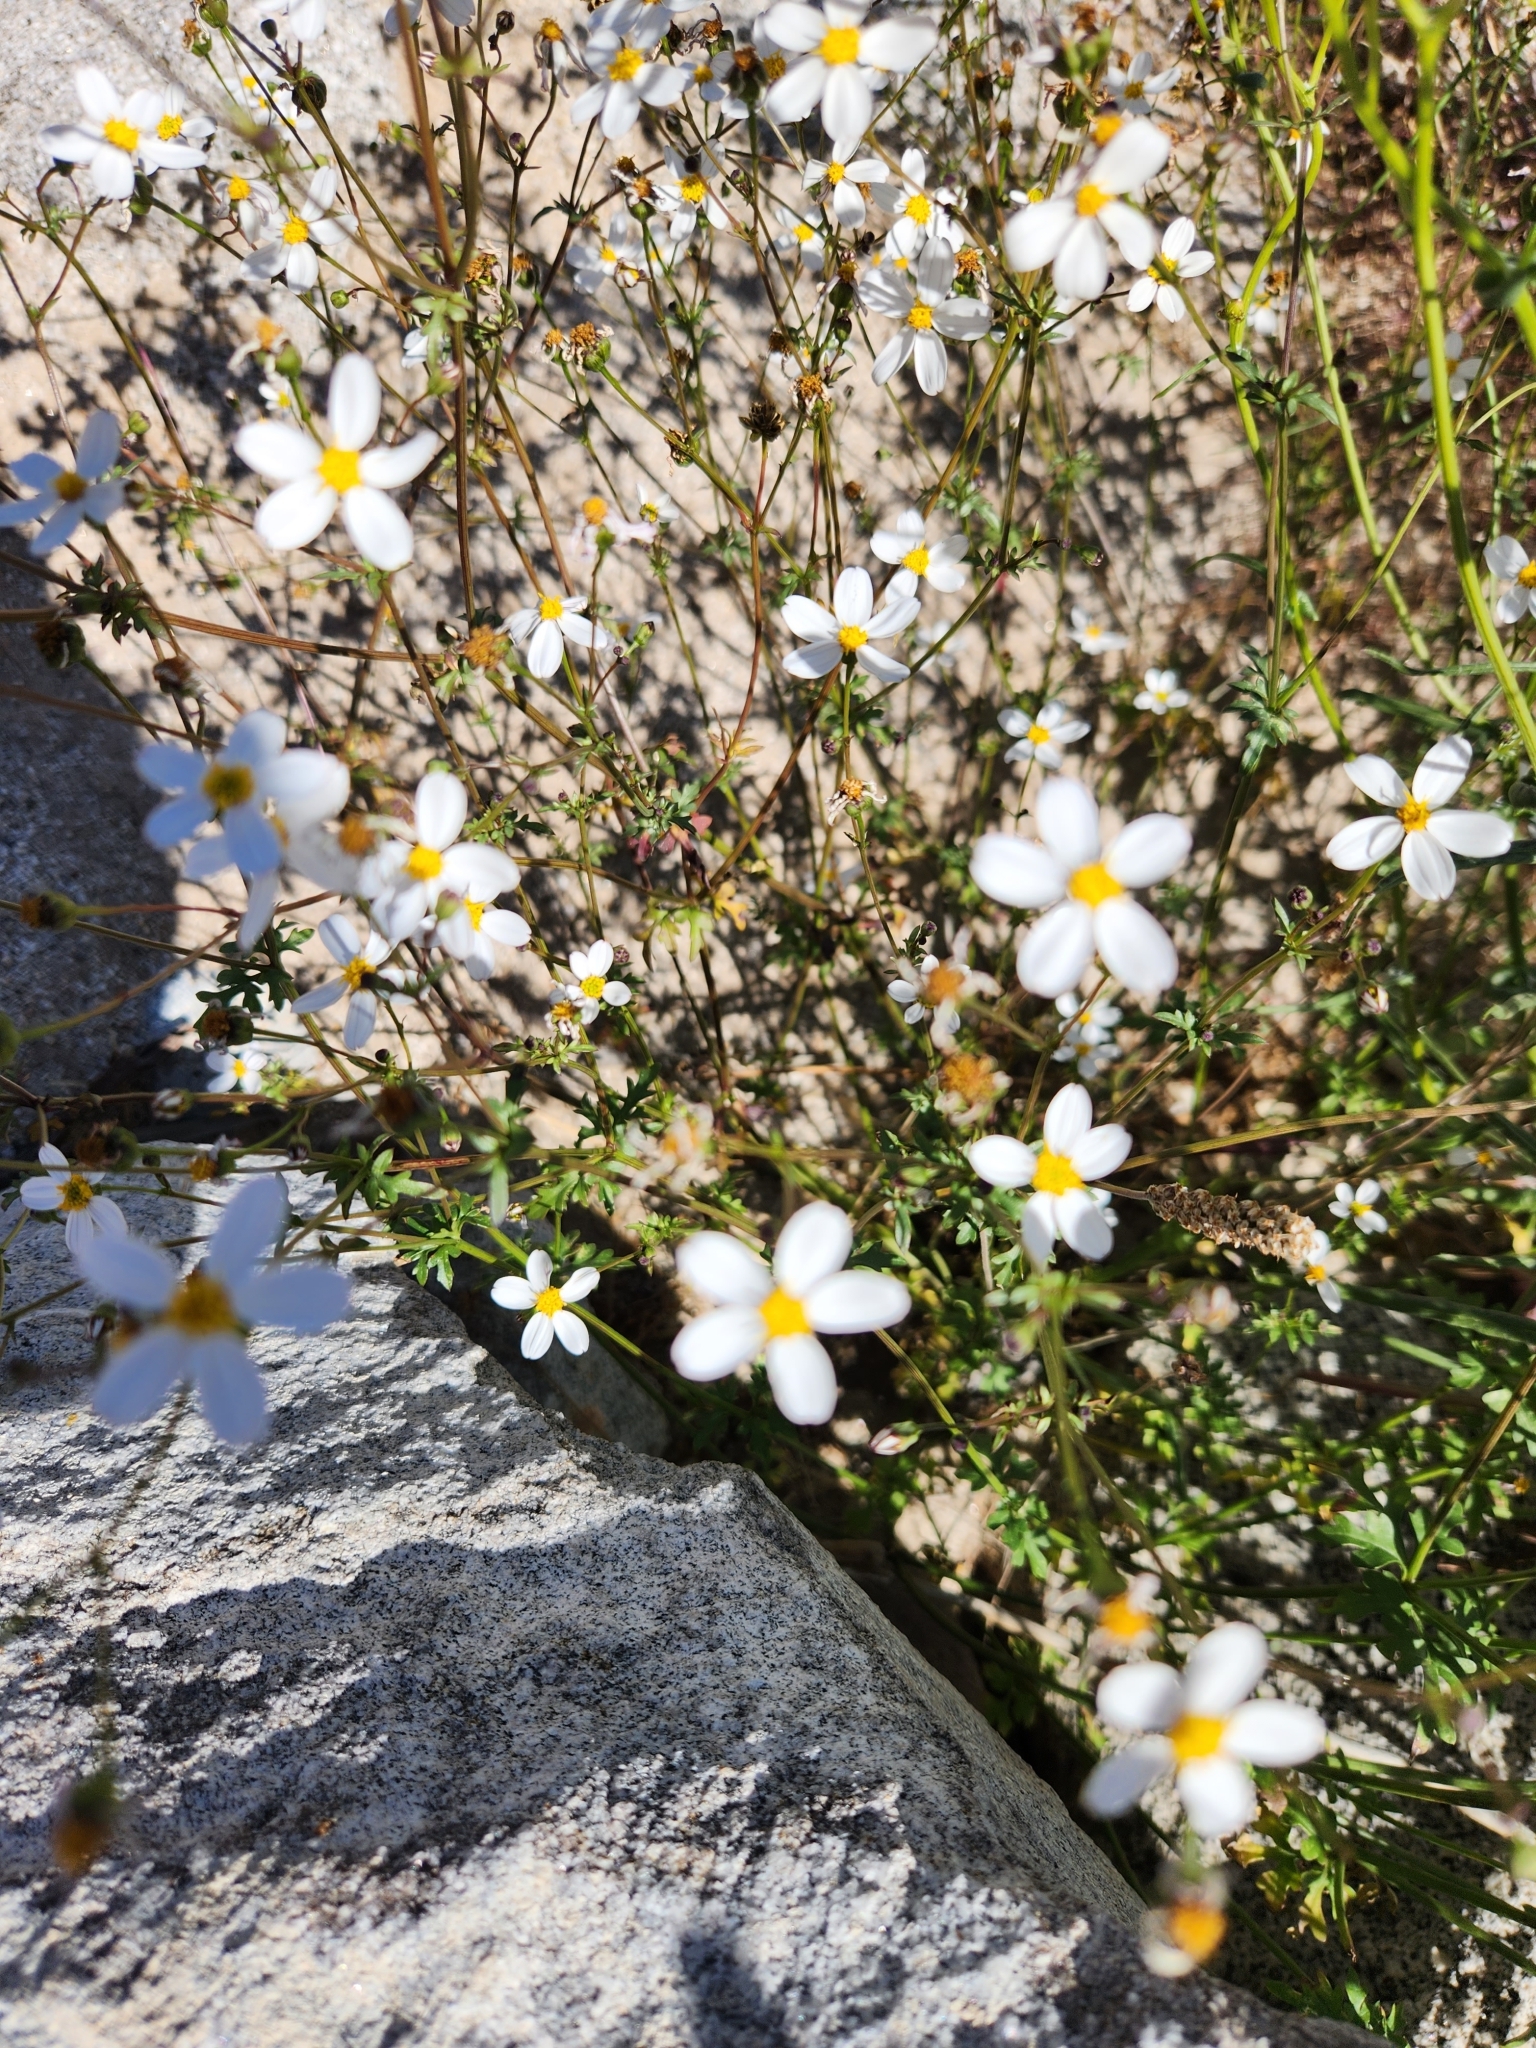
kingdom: Plantae
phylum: Tracheophyta
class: Magnoliopsida
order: Asterales
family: Asteraceae
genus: Coreocarpus
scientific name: Coreocarpus parthenioides
